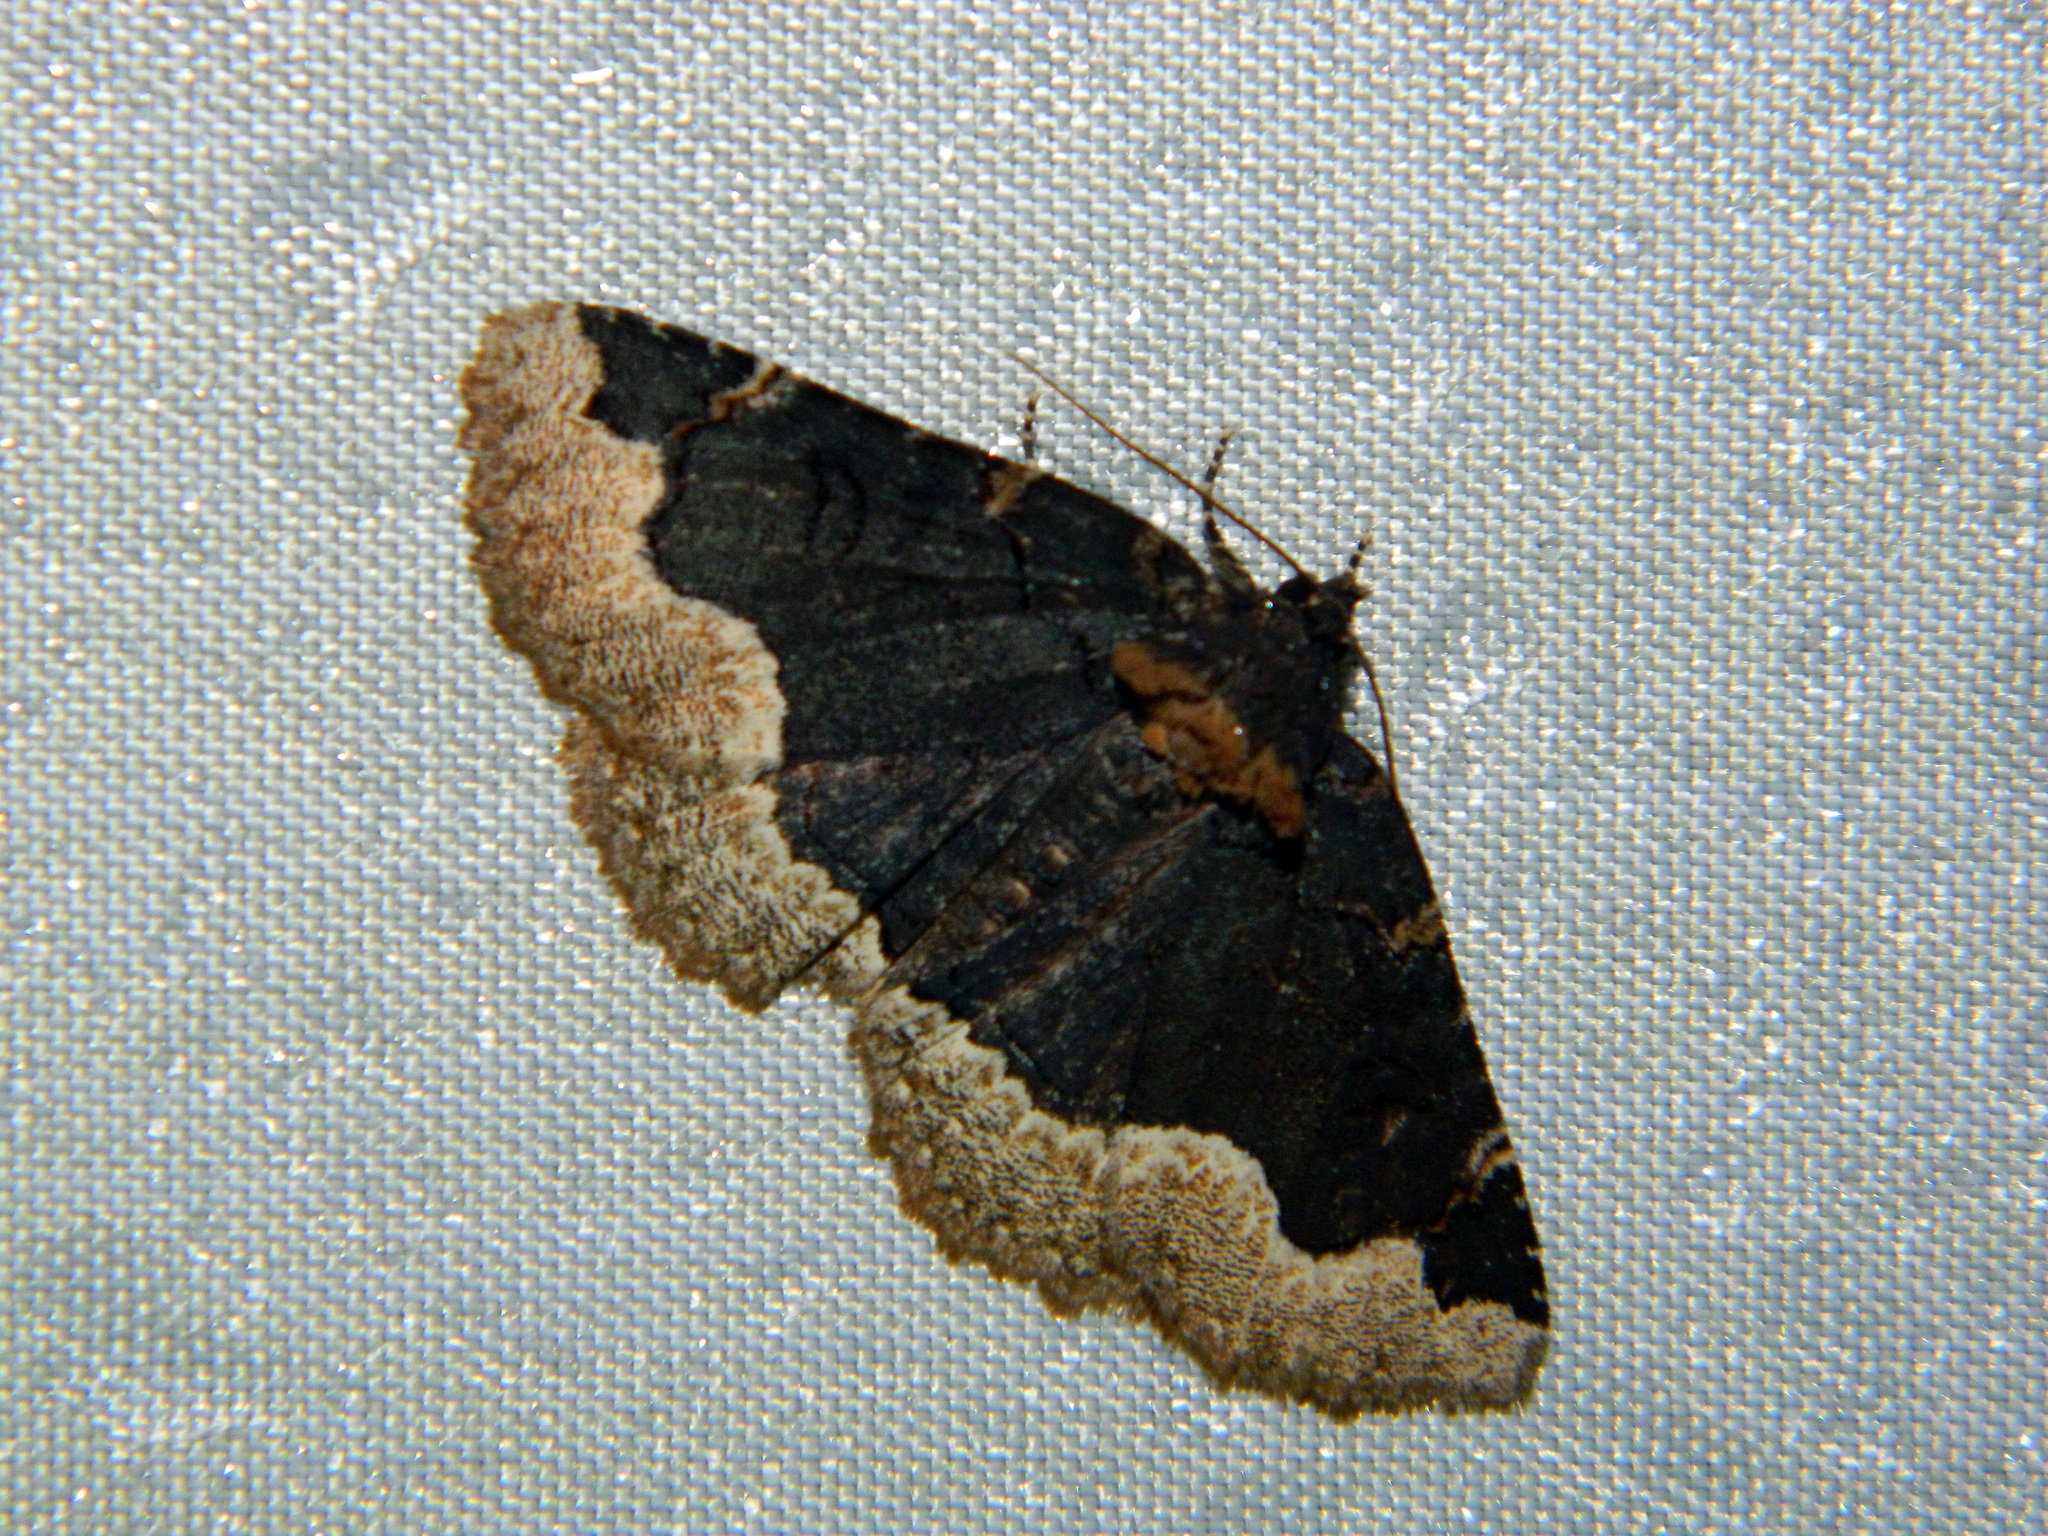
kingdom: Animalia
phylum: Arthropoda
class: Insecta
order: Lepidoptera
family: Erebidae
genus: Zale
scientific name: Zale horrida
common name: Horrid zale moth
